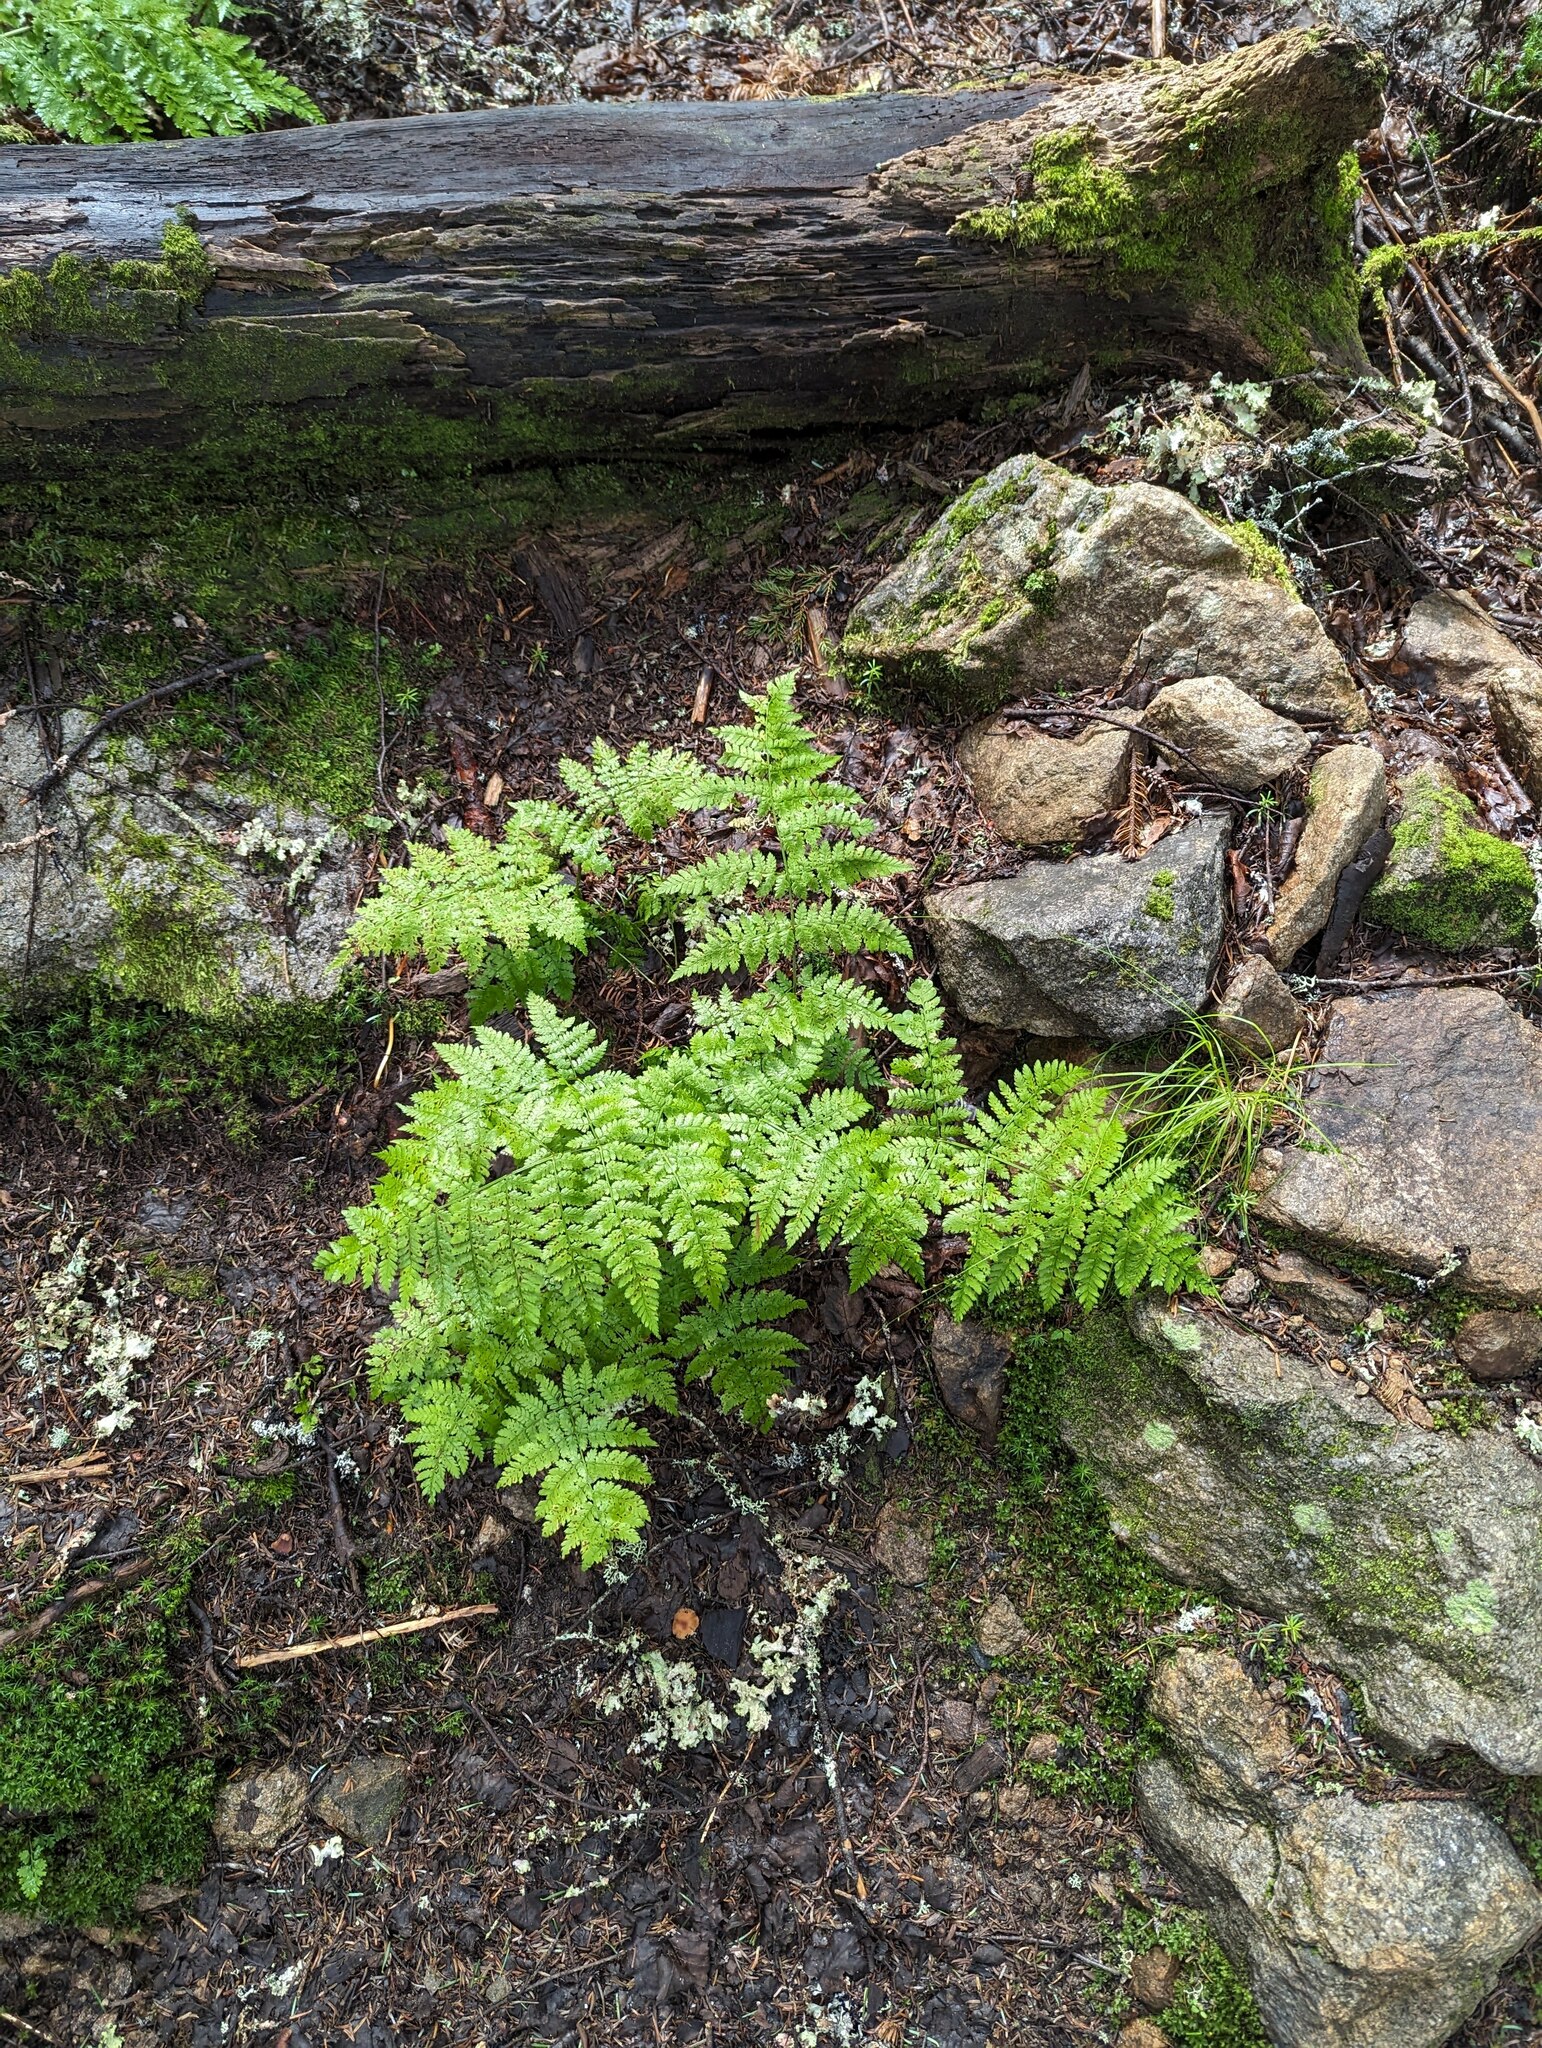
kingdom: Plantae
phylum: Tracheophyta
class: Polypodiopsida
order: Polypodiales
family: Dryopteridaceae
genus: Dryopteris
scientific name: Dryopteris campyloptera
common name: Mountain wood fern
